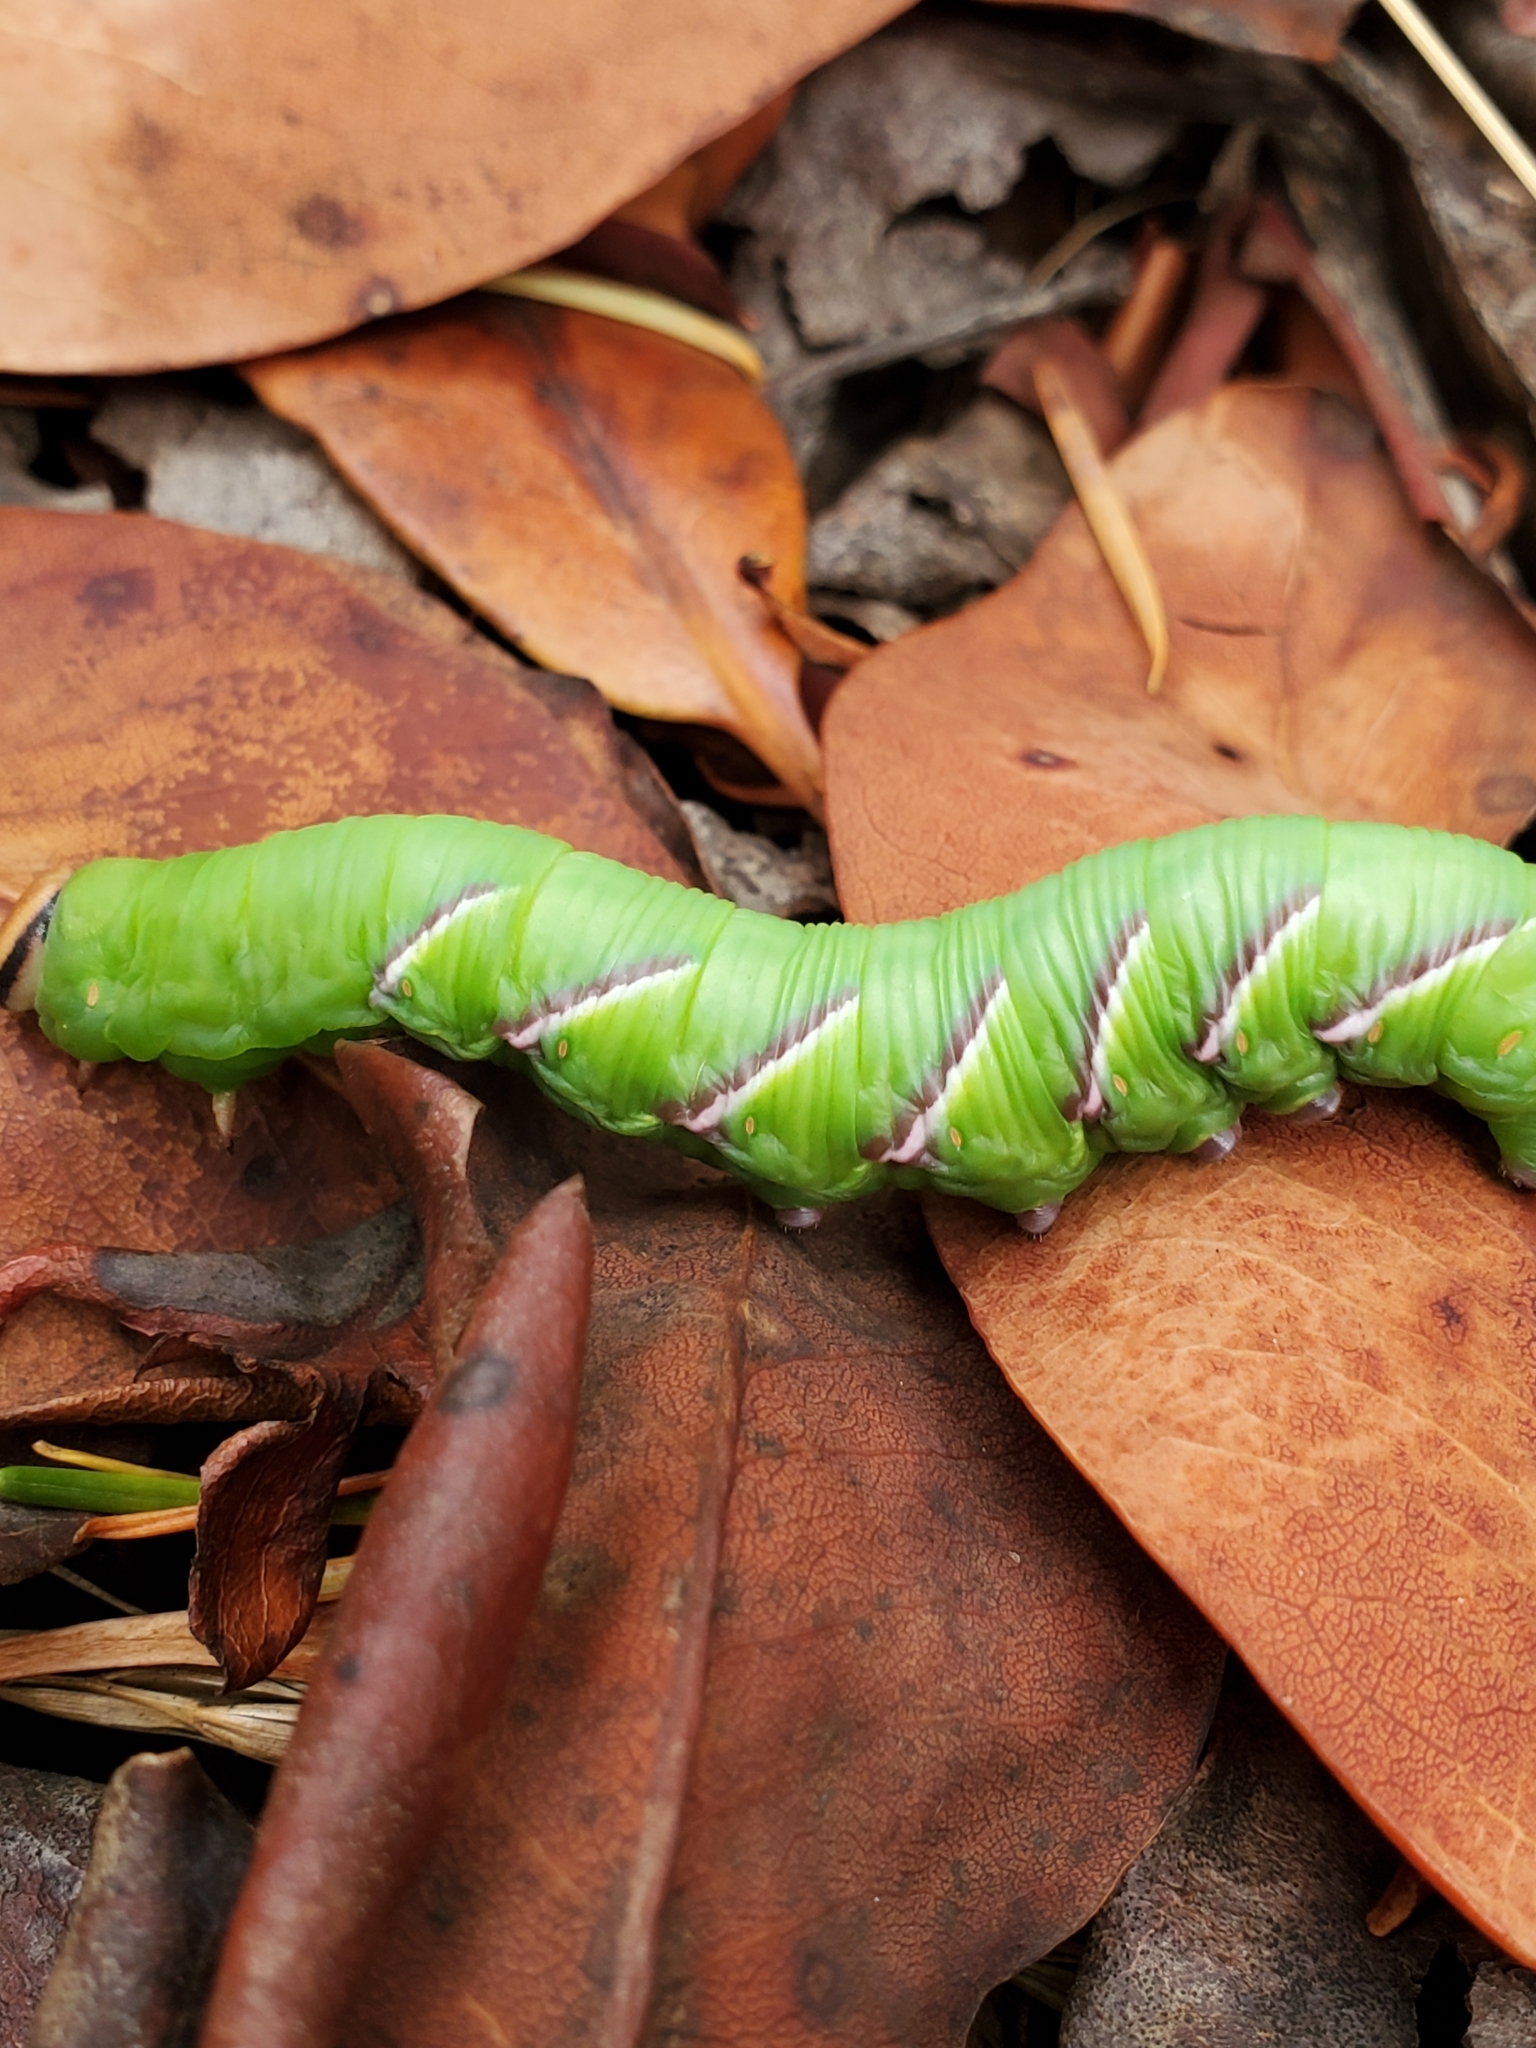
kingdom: Animalia
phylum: Arthropoda
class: Insecta
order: Lepidoptera
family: Sphingidae
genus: Sphinx
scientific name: Sphinx perelegans
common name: Elegant sphinx
